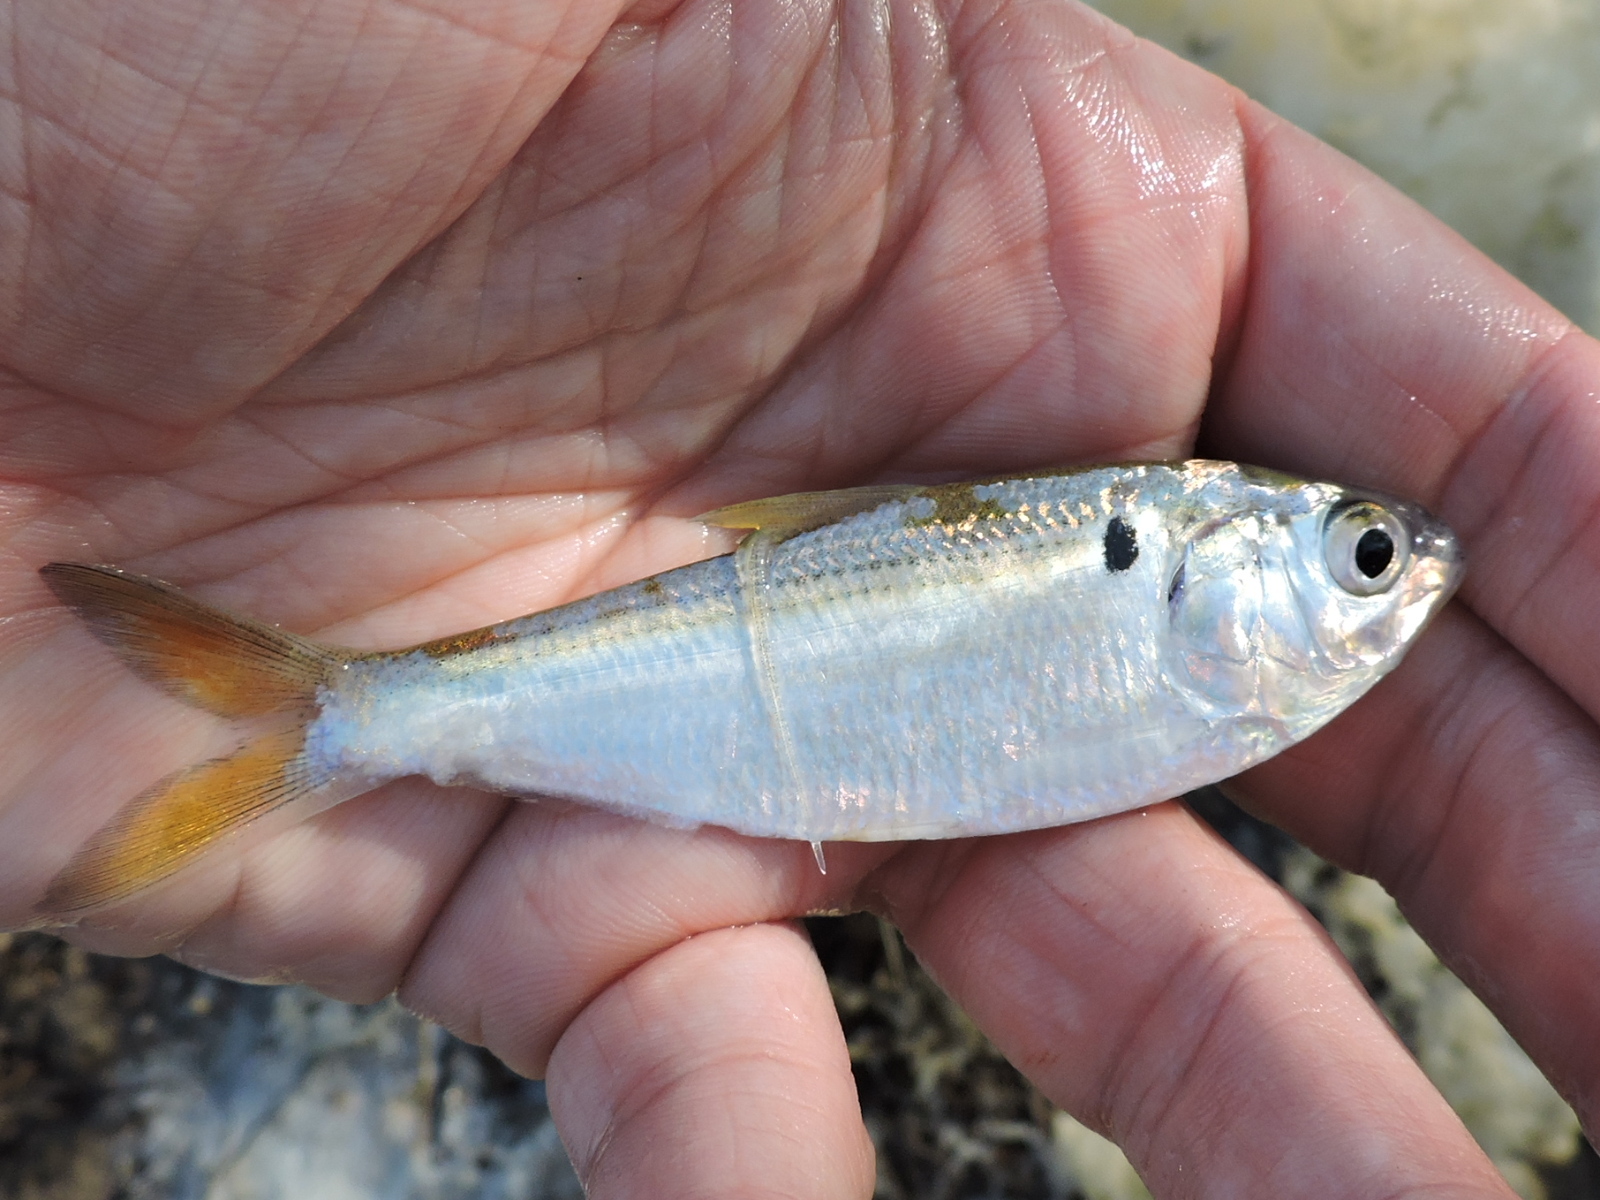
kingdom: Animalia
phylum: Chordata
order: Clupeiformes
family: Clupeidae
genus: Dorosoma
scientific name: Dorosoma petenense
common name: Threadfin shad
